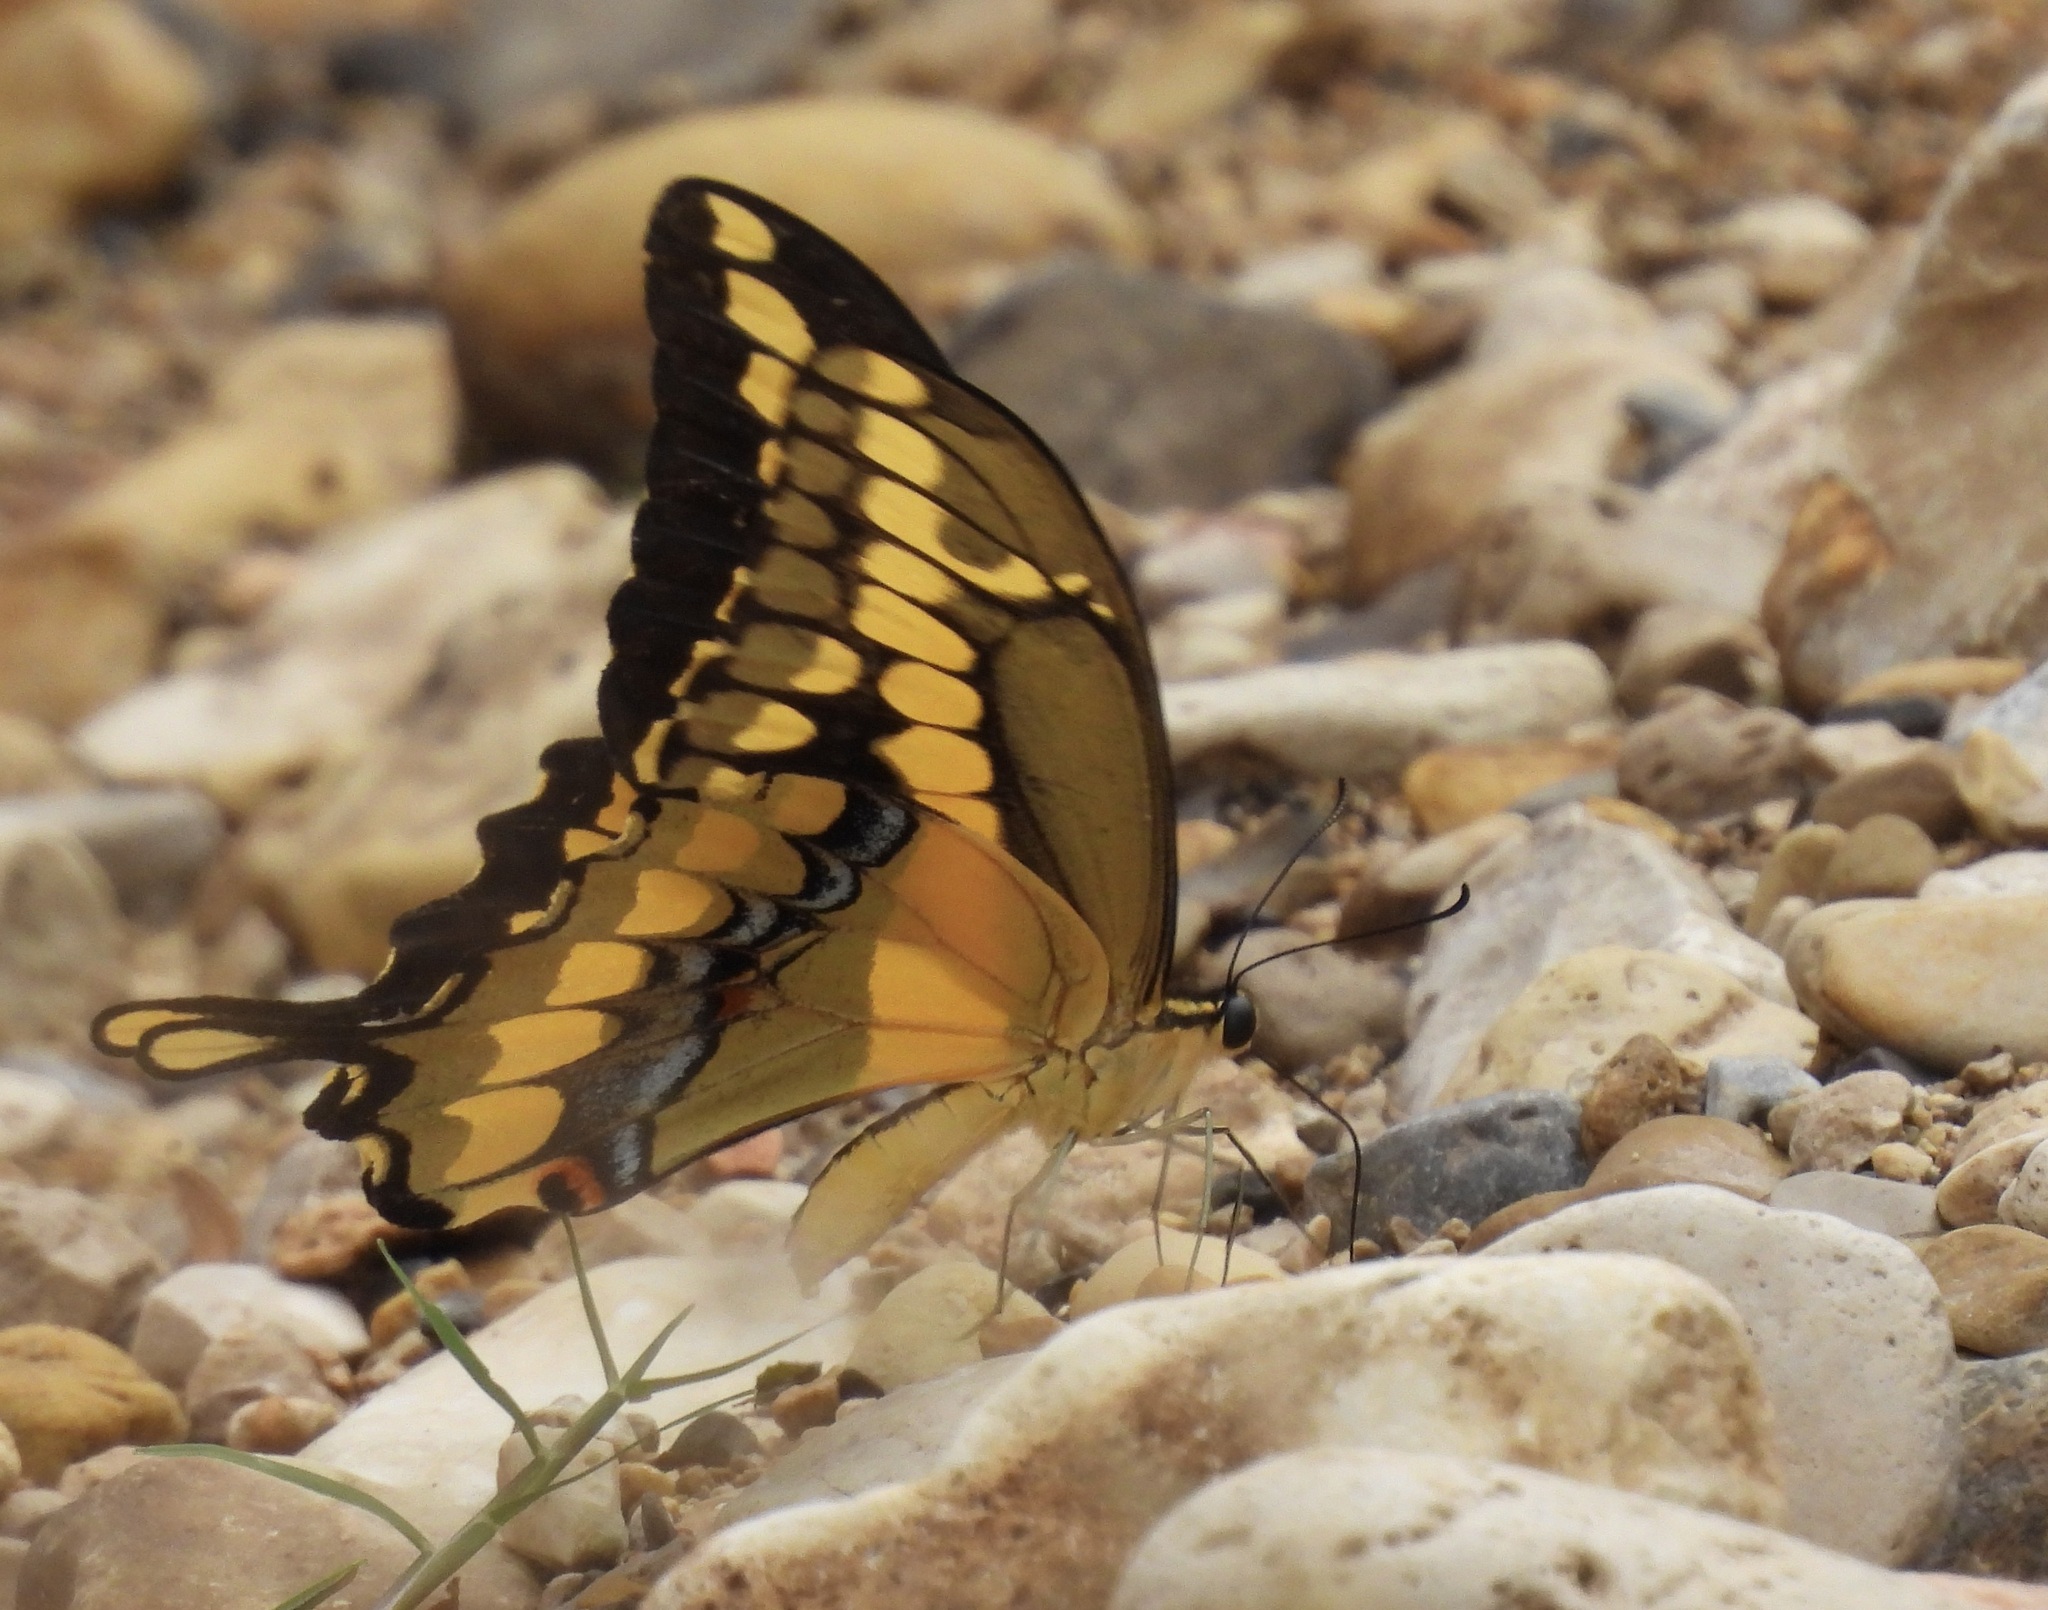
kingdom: Animalia
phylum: Arthropoda
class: Insecta
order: Lepidoptera
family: Papilionidae
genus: Papilio
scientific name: Papilio rumiko
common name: Western giant swallowtail
